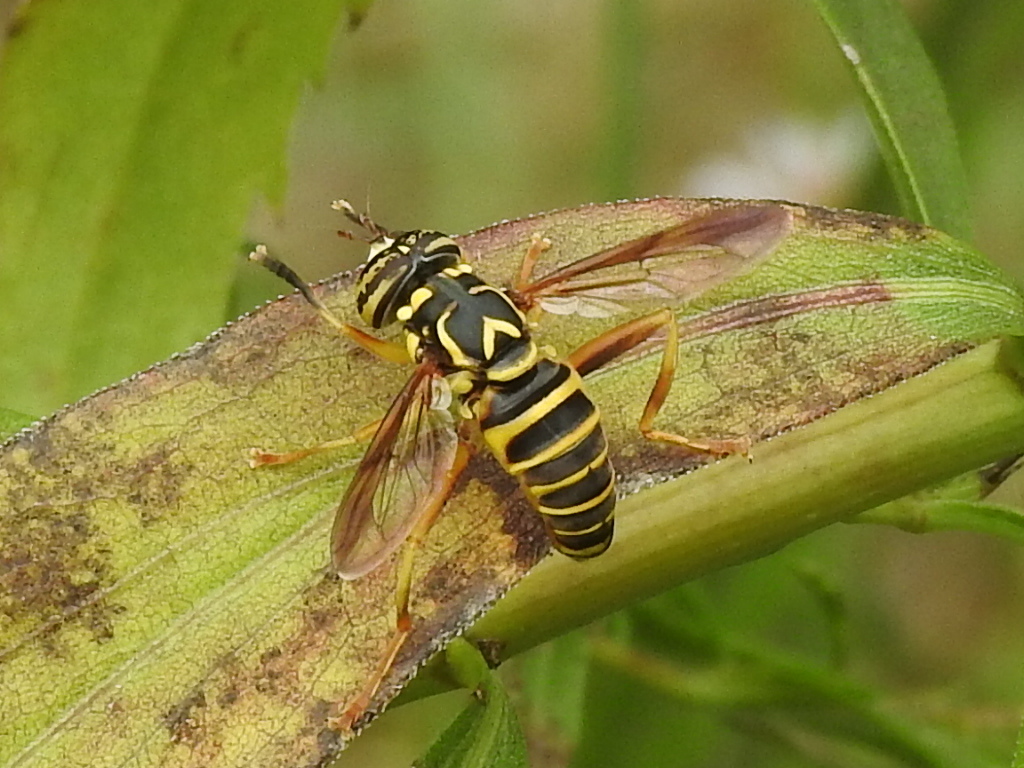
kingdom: Animalia
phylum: Arthropoda
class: Insecta
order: Diptera
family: Syrphidae
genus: Spilomyia
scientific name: Spilomyia longicornis
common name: Eastern hornet fly
